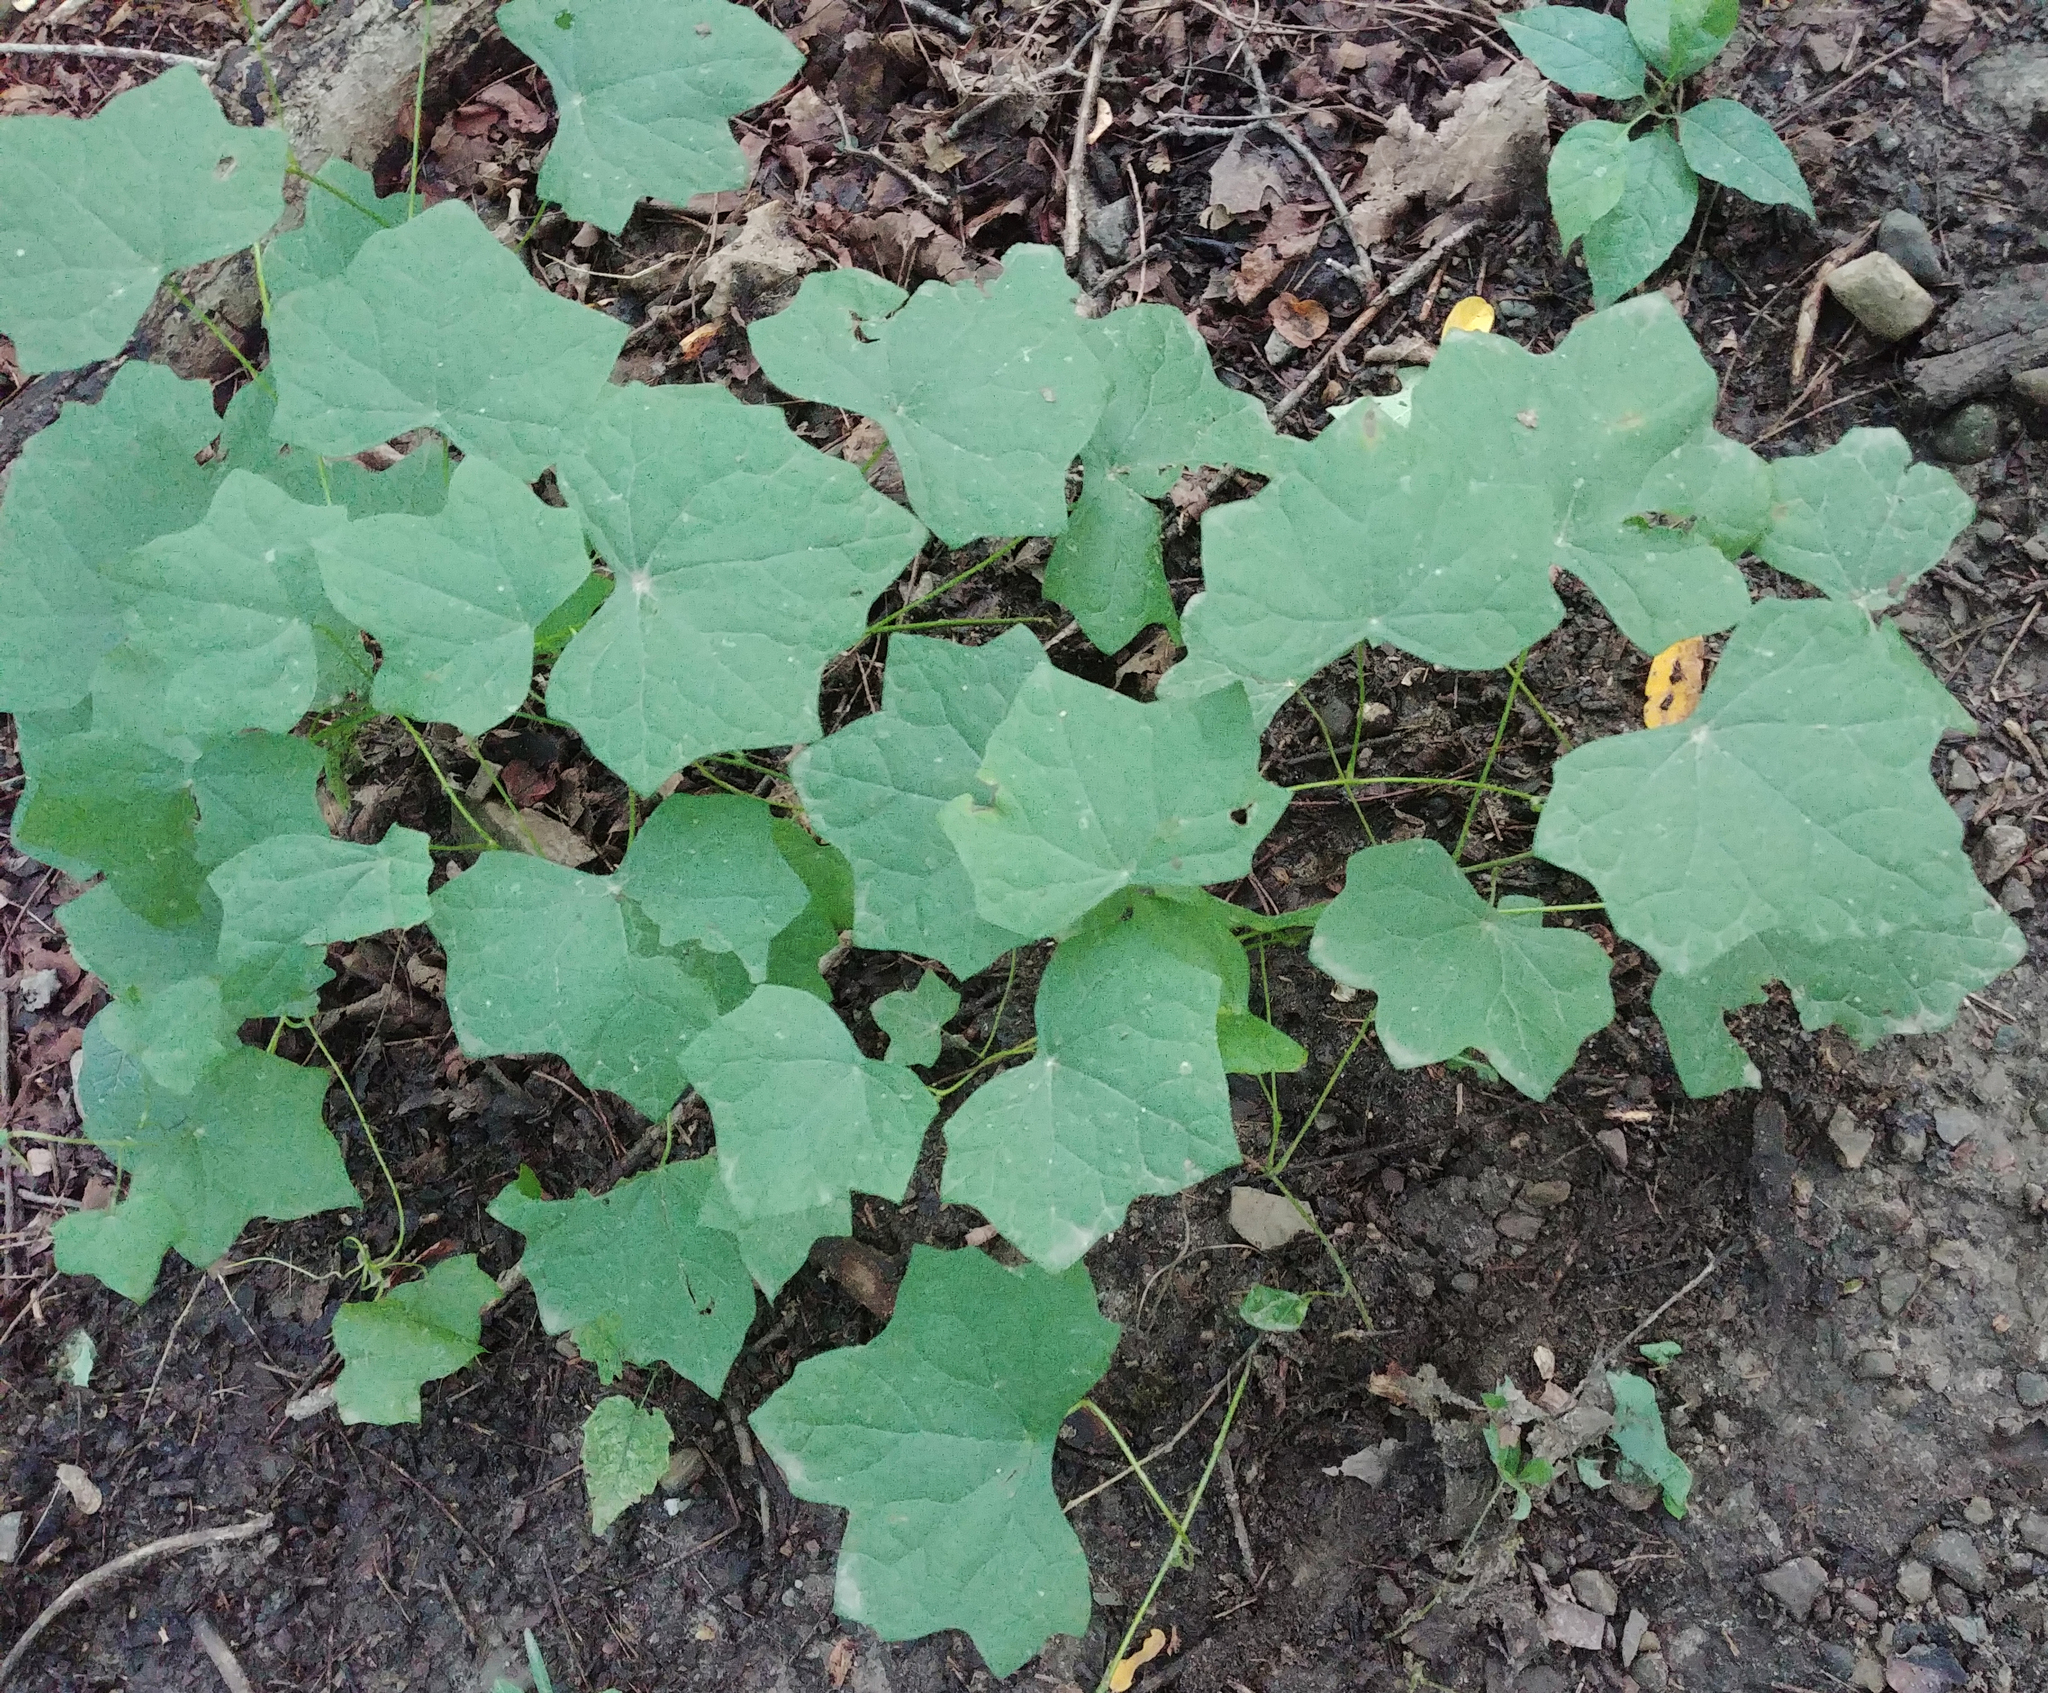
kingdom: Plantae
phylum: Tracheophyta
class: Magnoliopsida
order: Ranunculales
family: Menispermaceae
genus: Menispermum
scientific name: Menispermum canadense
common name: Moonseed
